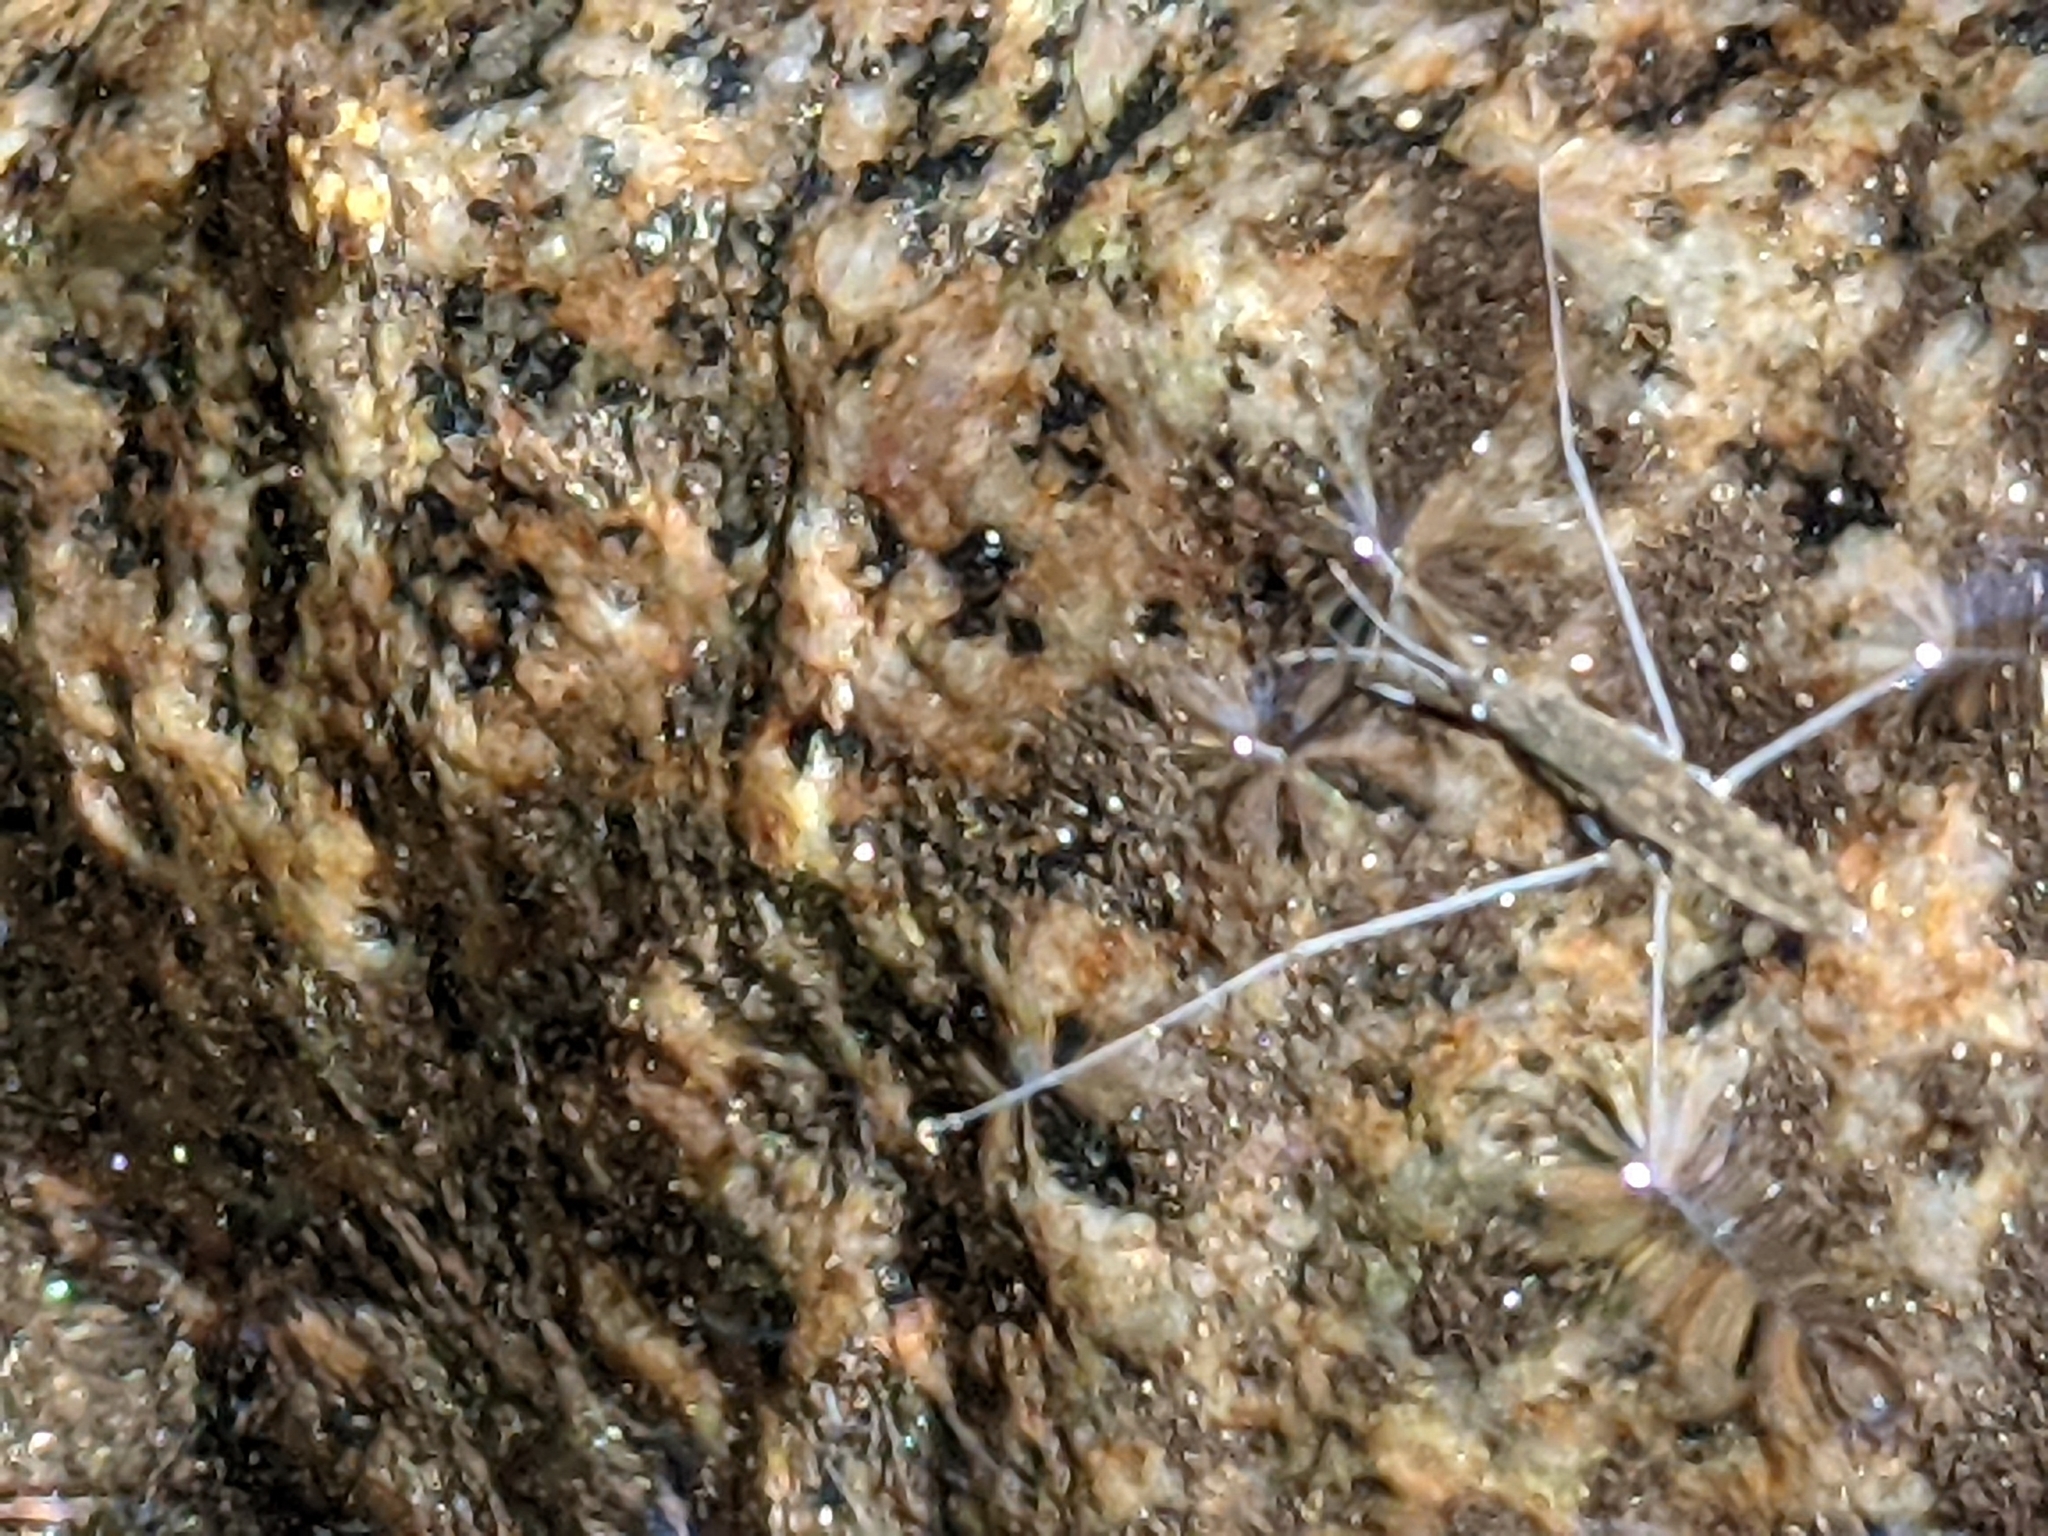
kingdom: Animalia
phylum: Arthropoda
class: Insecta
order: Hemiptera
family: Gerridae
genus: Aquarius
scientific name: Aquarius remigis
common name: Common water strider
